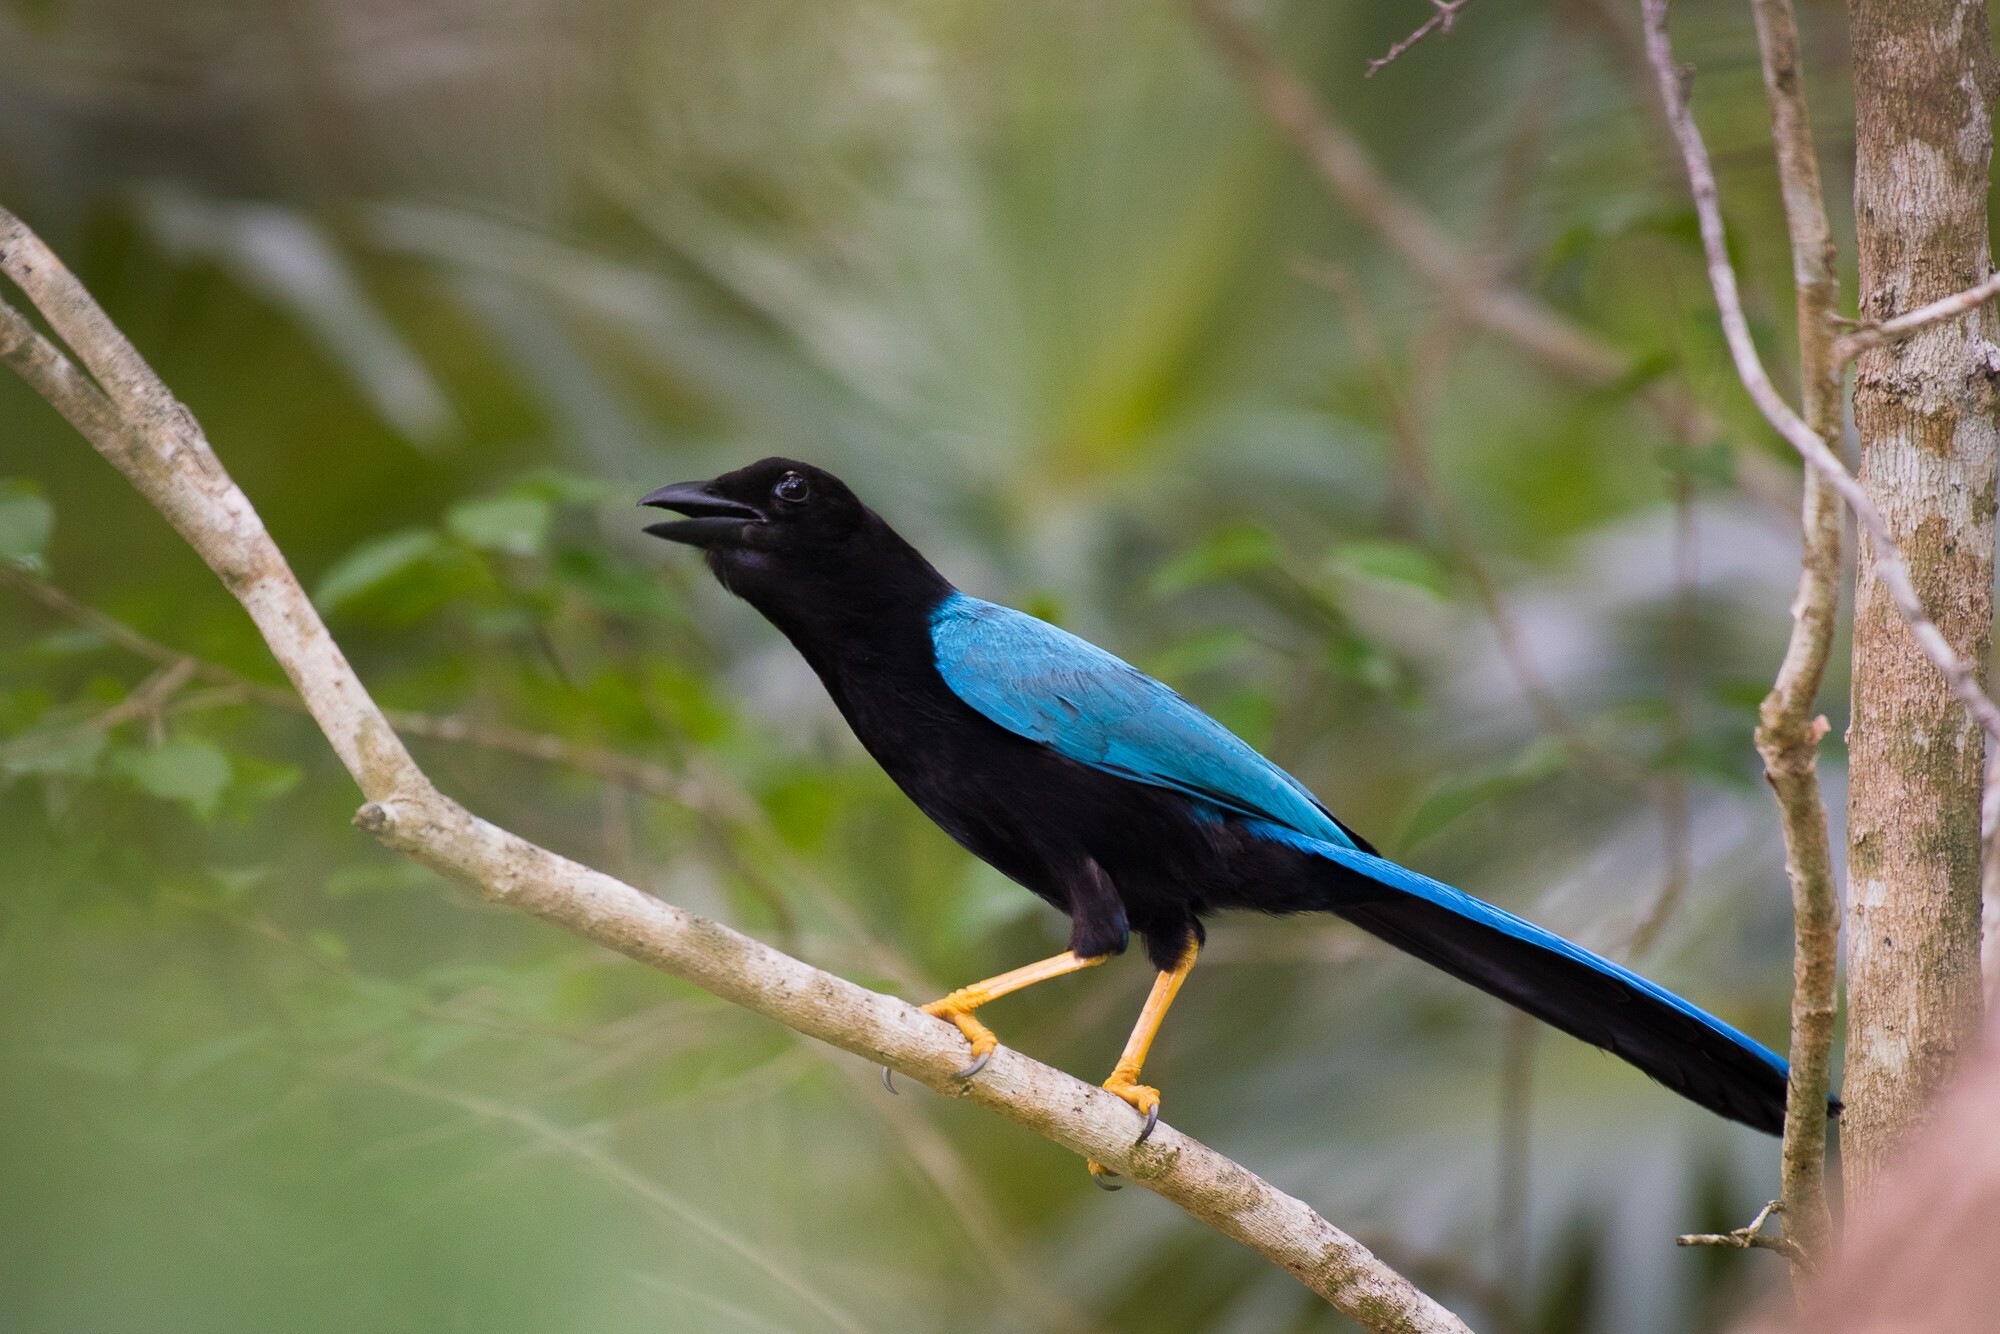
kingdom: Animalia
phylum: Chordata
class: Aves
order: Passeriformes
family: Corvidae
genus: Cyanocorax
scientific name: Cyanocorax yucatanicus
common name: Yucatan jay
